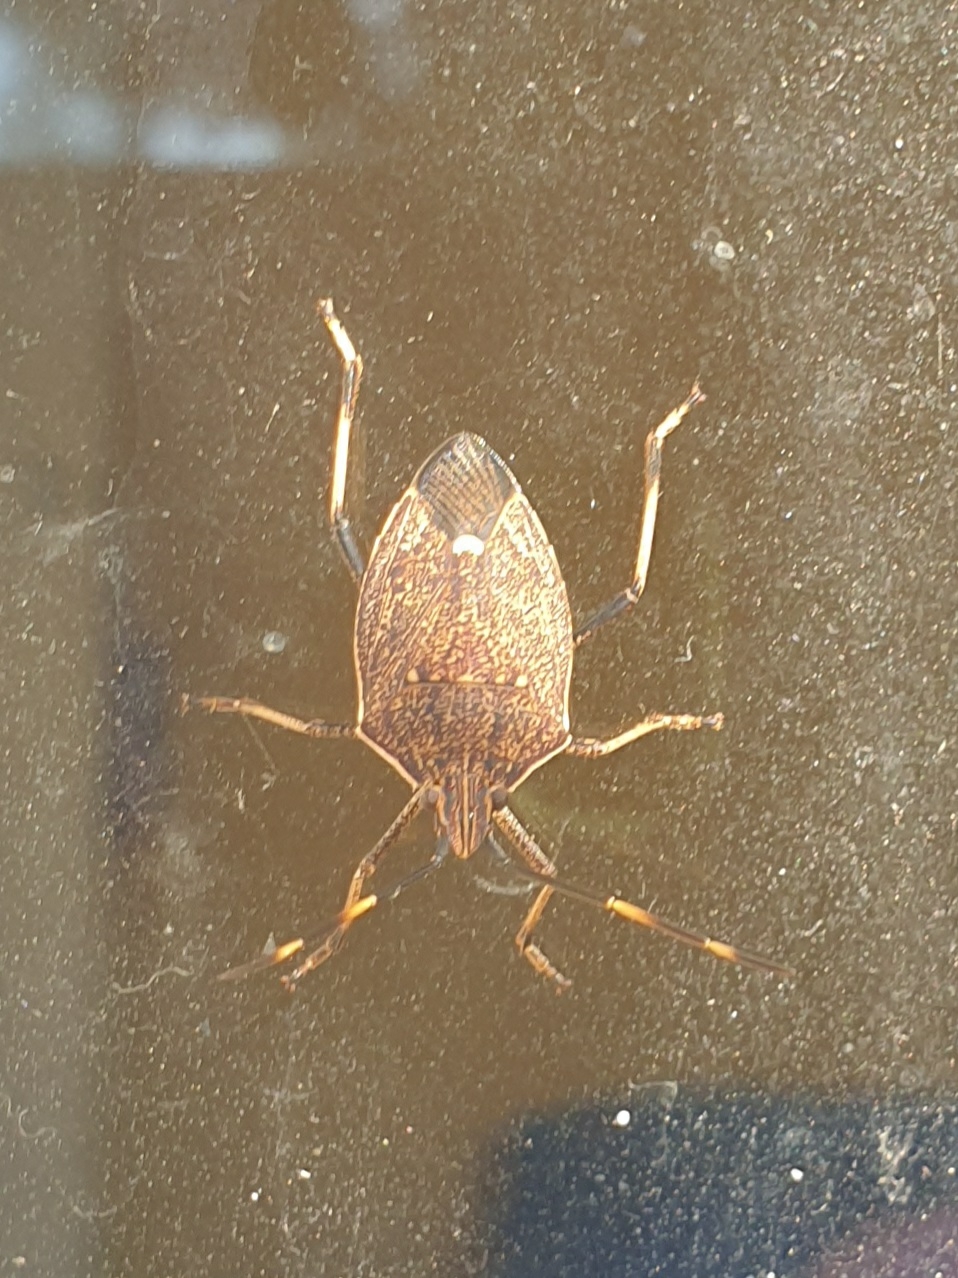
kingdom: Animalia
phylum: Arthropoda
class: Insecta
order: Hemiptera
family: Pentatomidae
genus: Poecilometis
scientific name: Poecilometis
